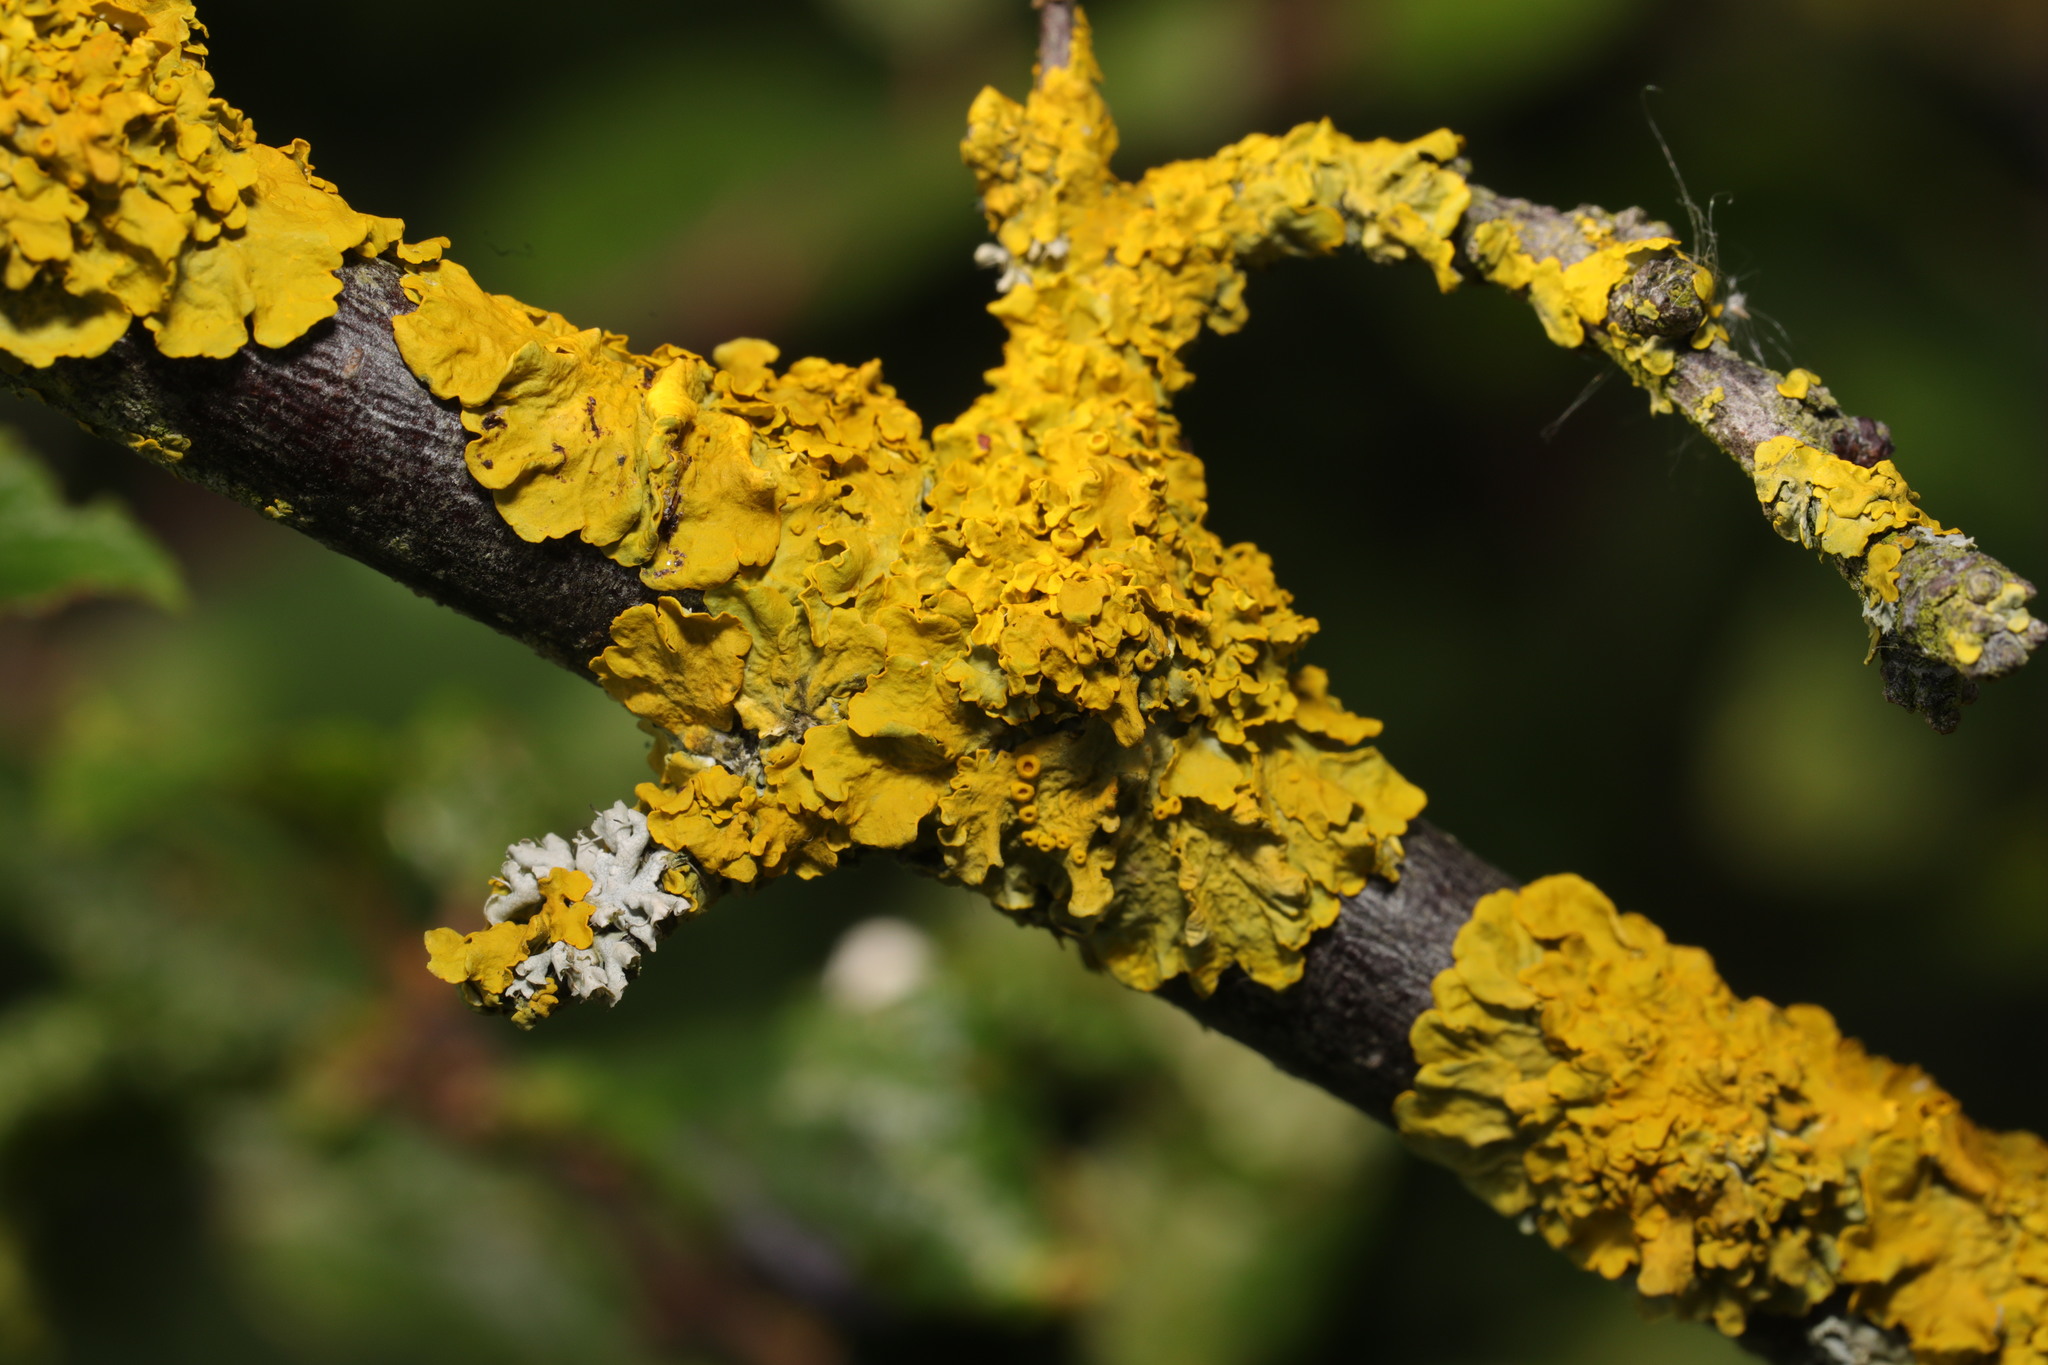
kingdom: Fungi
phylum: Ascomycota
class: Lecanoromycetes
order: Teloschistales
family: Teloschistaceae
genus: Xanthoria
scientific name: Xanthoria parietina
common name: Common orange lichen
